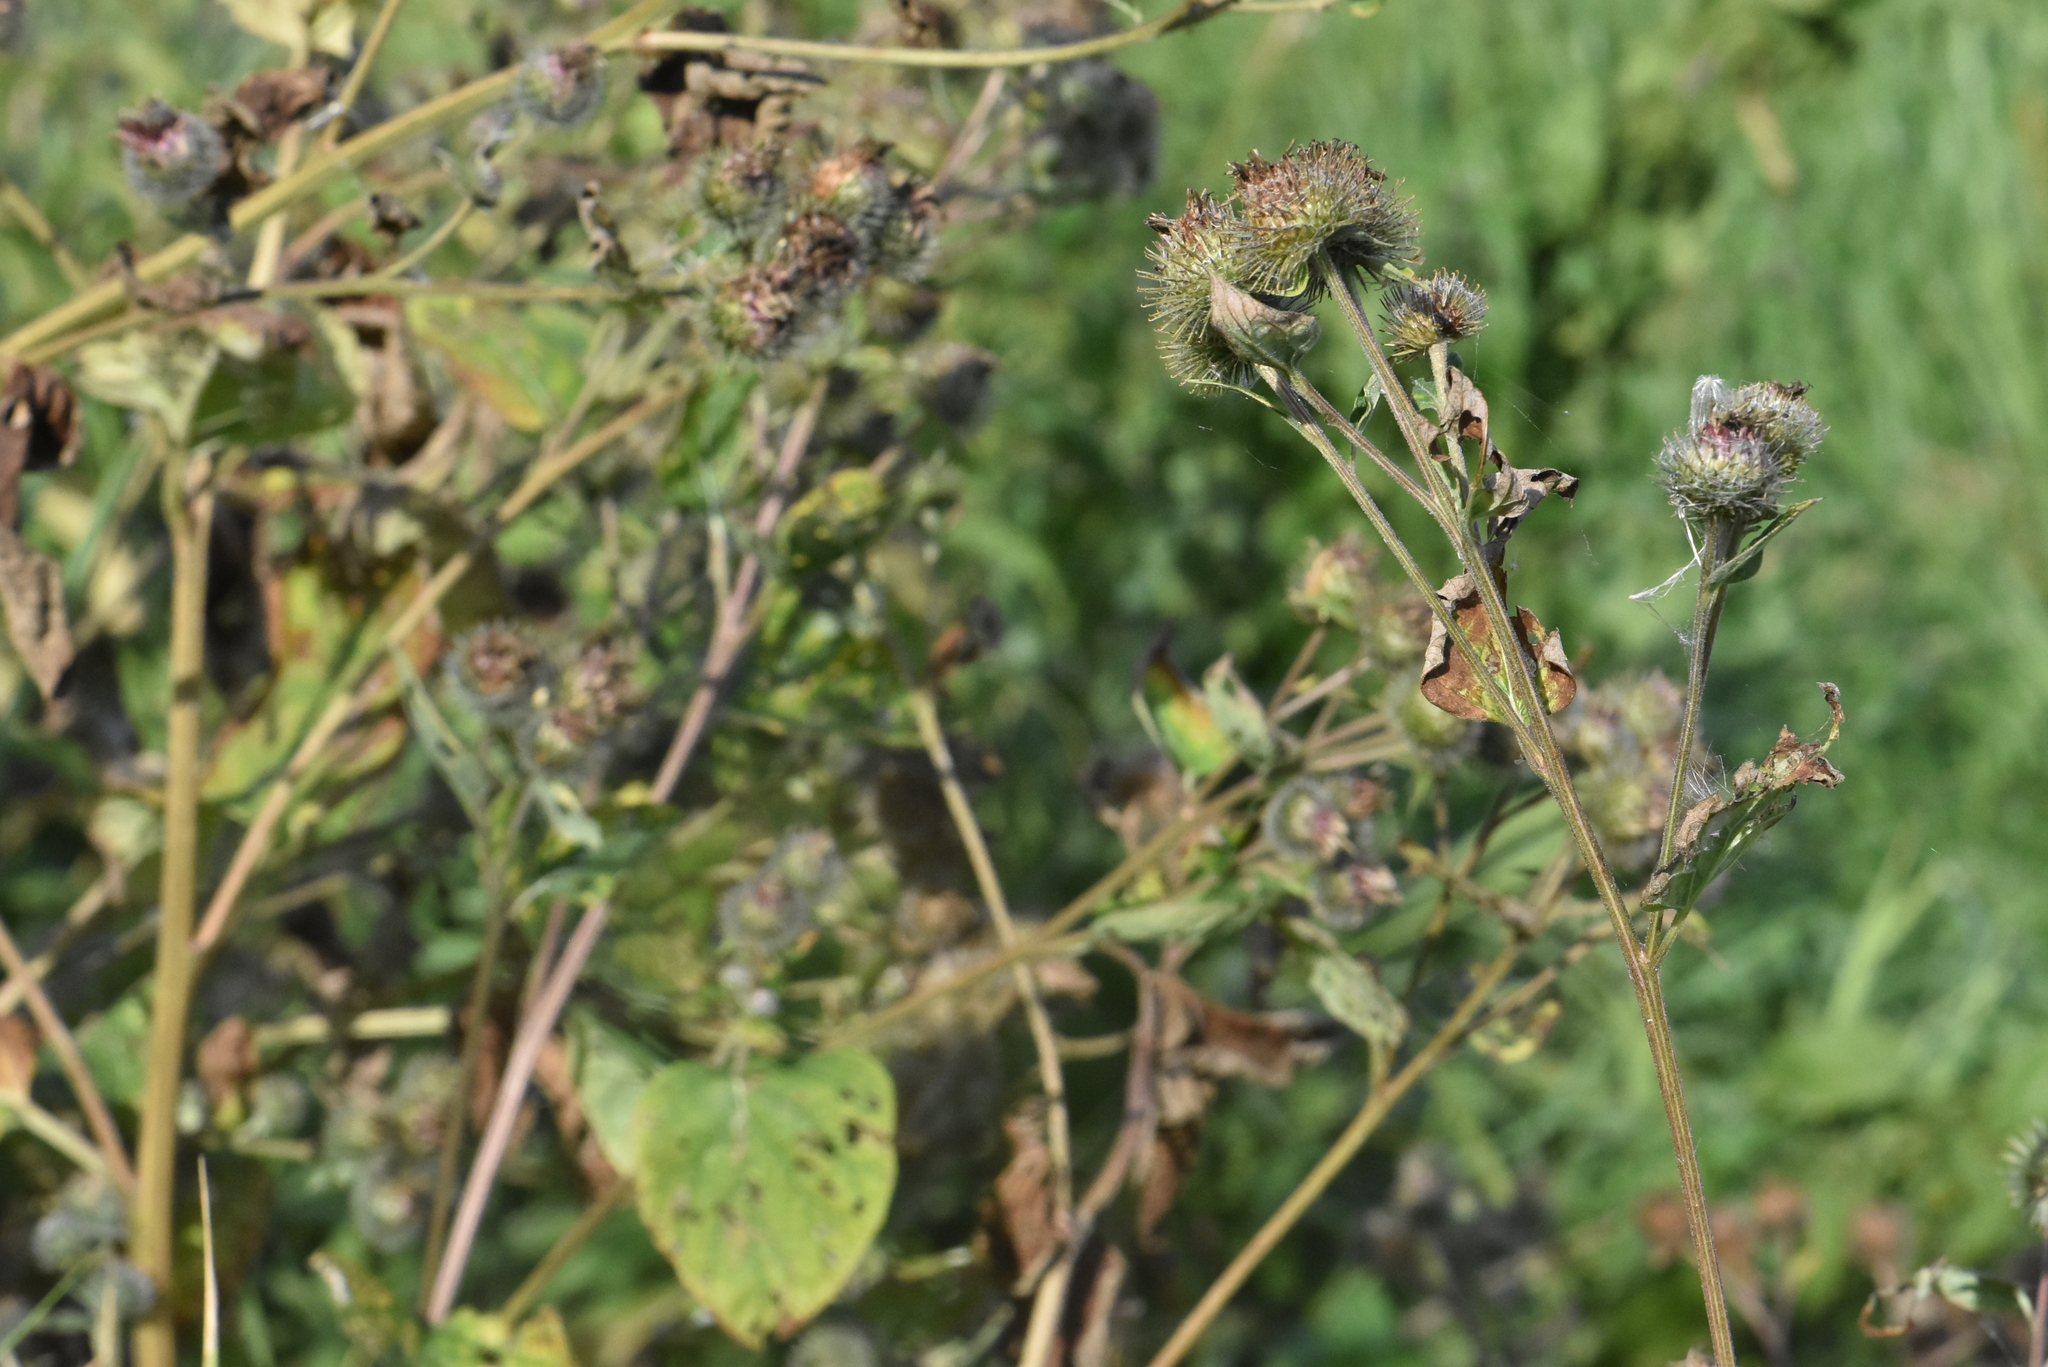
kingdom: Plantae
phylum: Tracheophyta
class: Magnoliopsida
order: Asterales
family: Asteraceae
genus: Arctium
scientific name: Arctium tomentosum
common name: Woolly burdock
